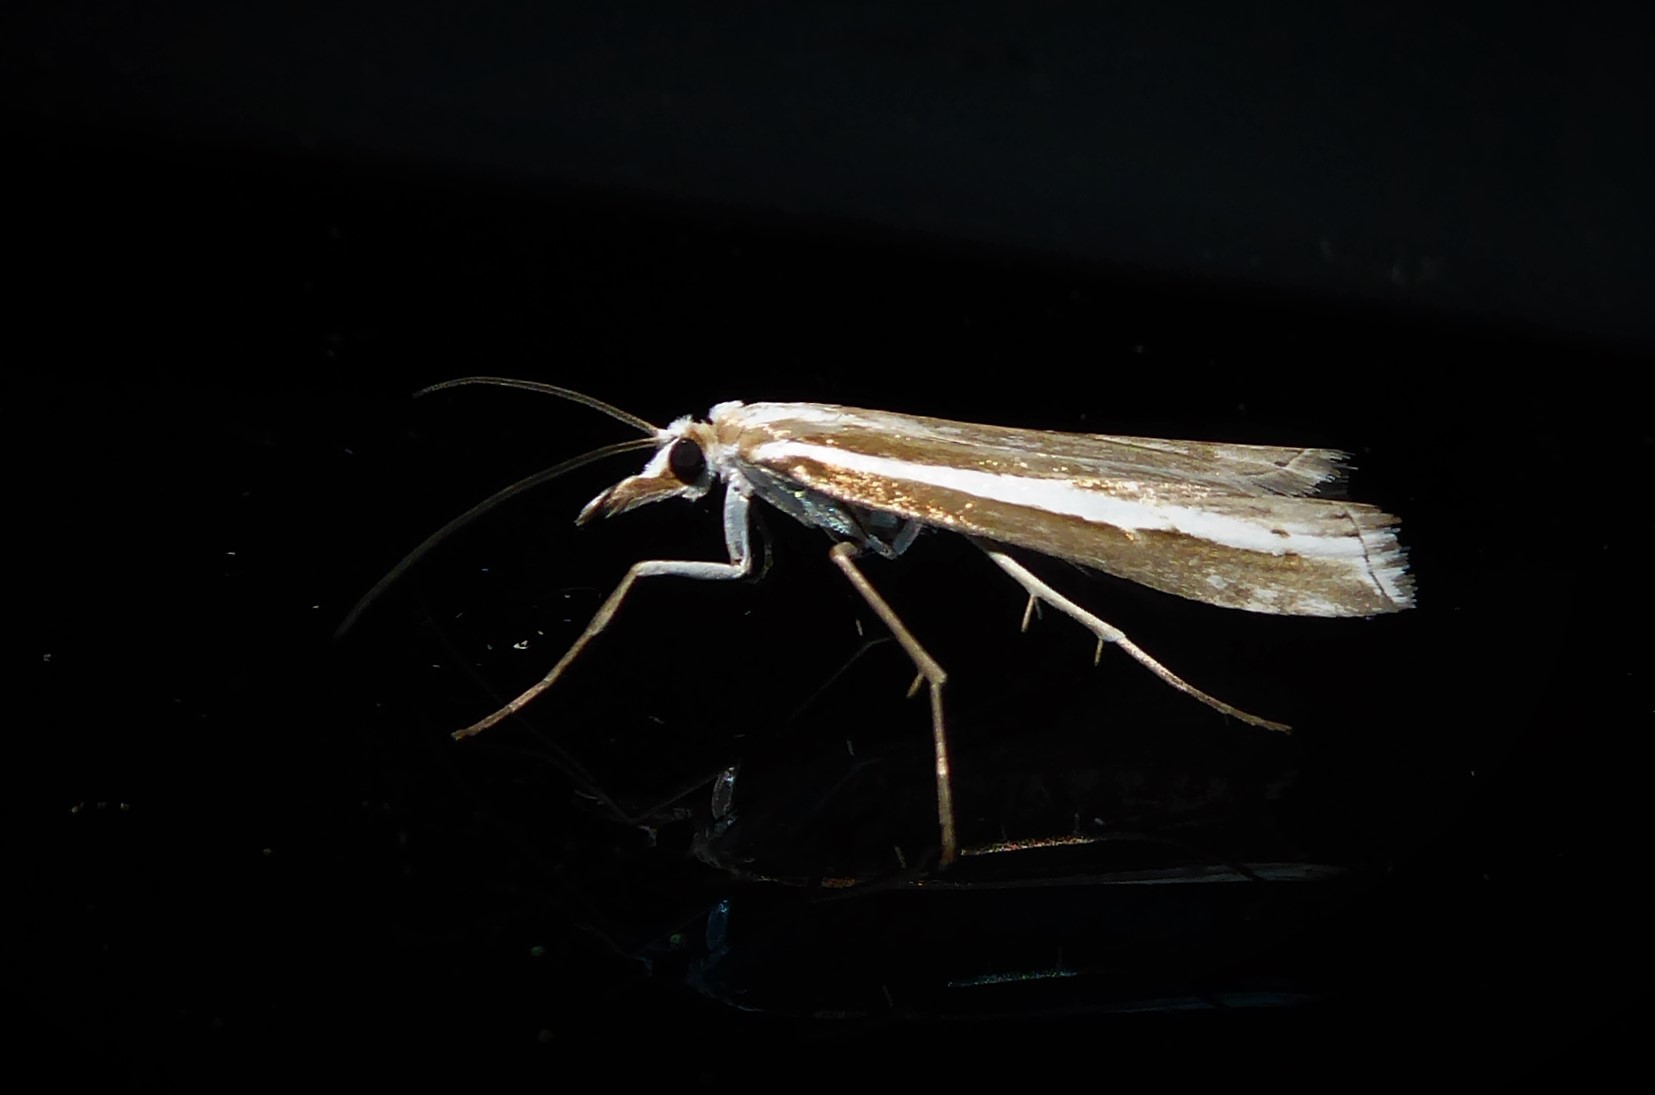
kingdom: Animalia
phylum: Arthropoda
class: Insecta
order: Lepidoptera
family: Crambidae
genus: Orocrambus
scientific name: Orocrambus vittellus
